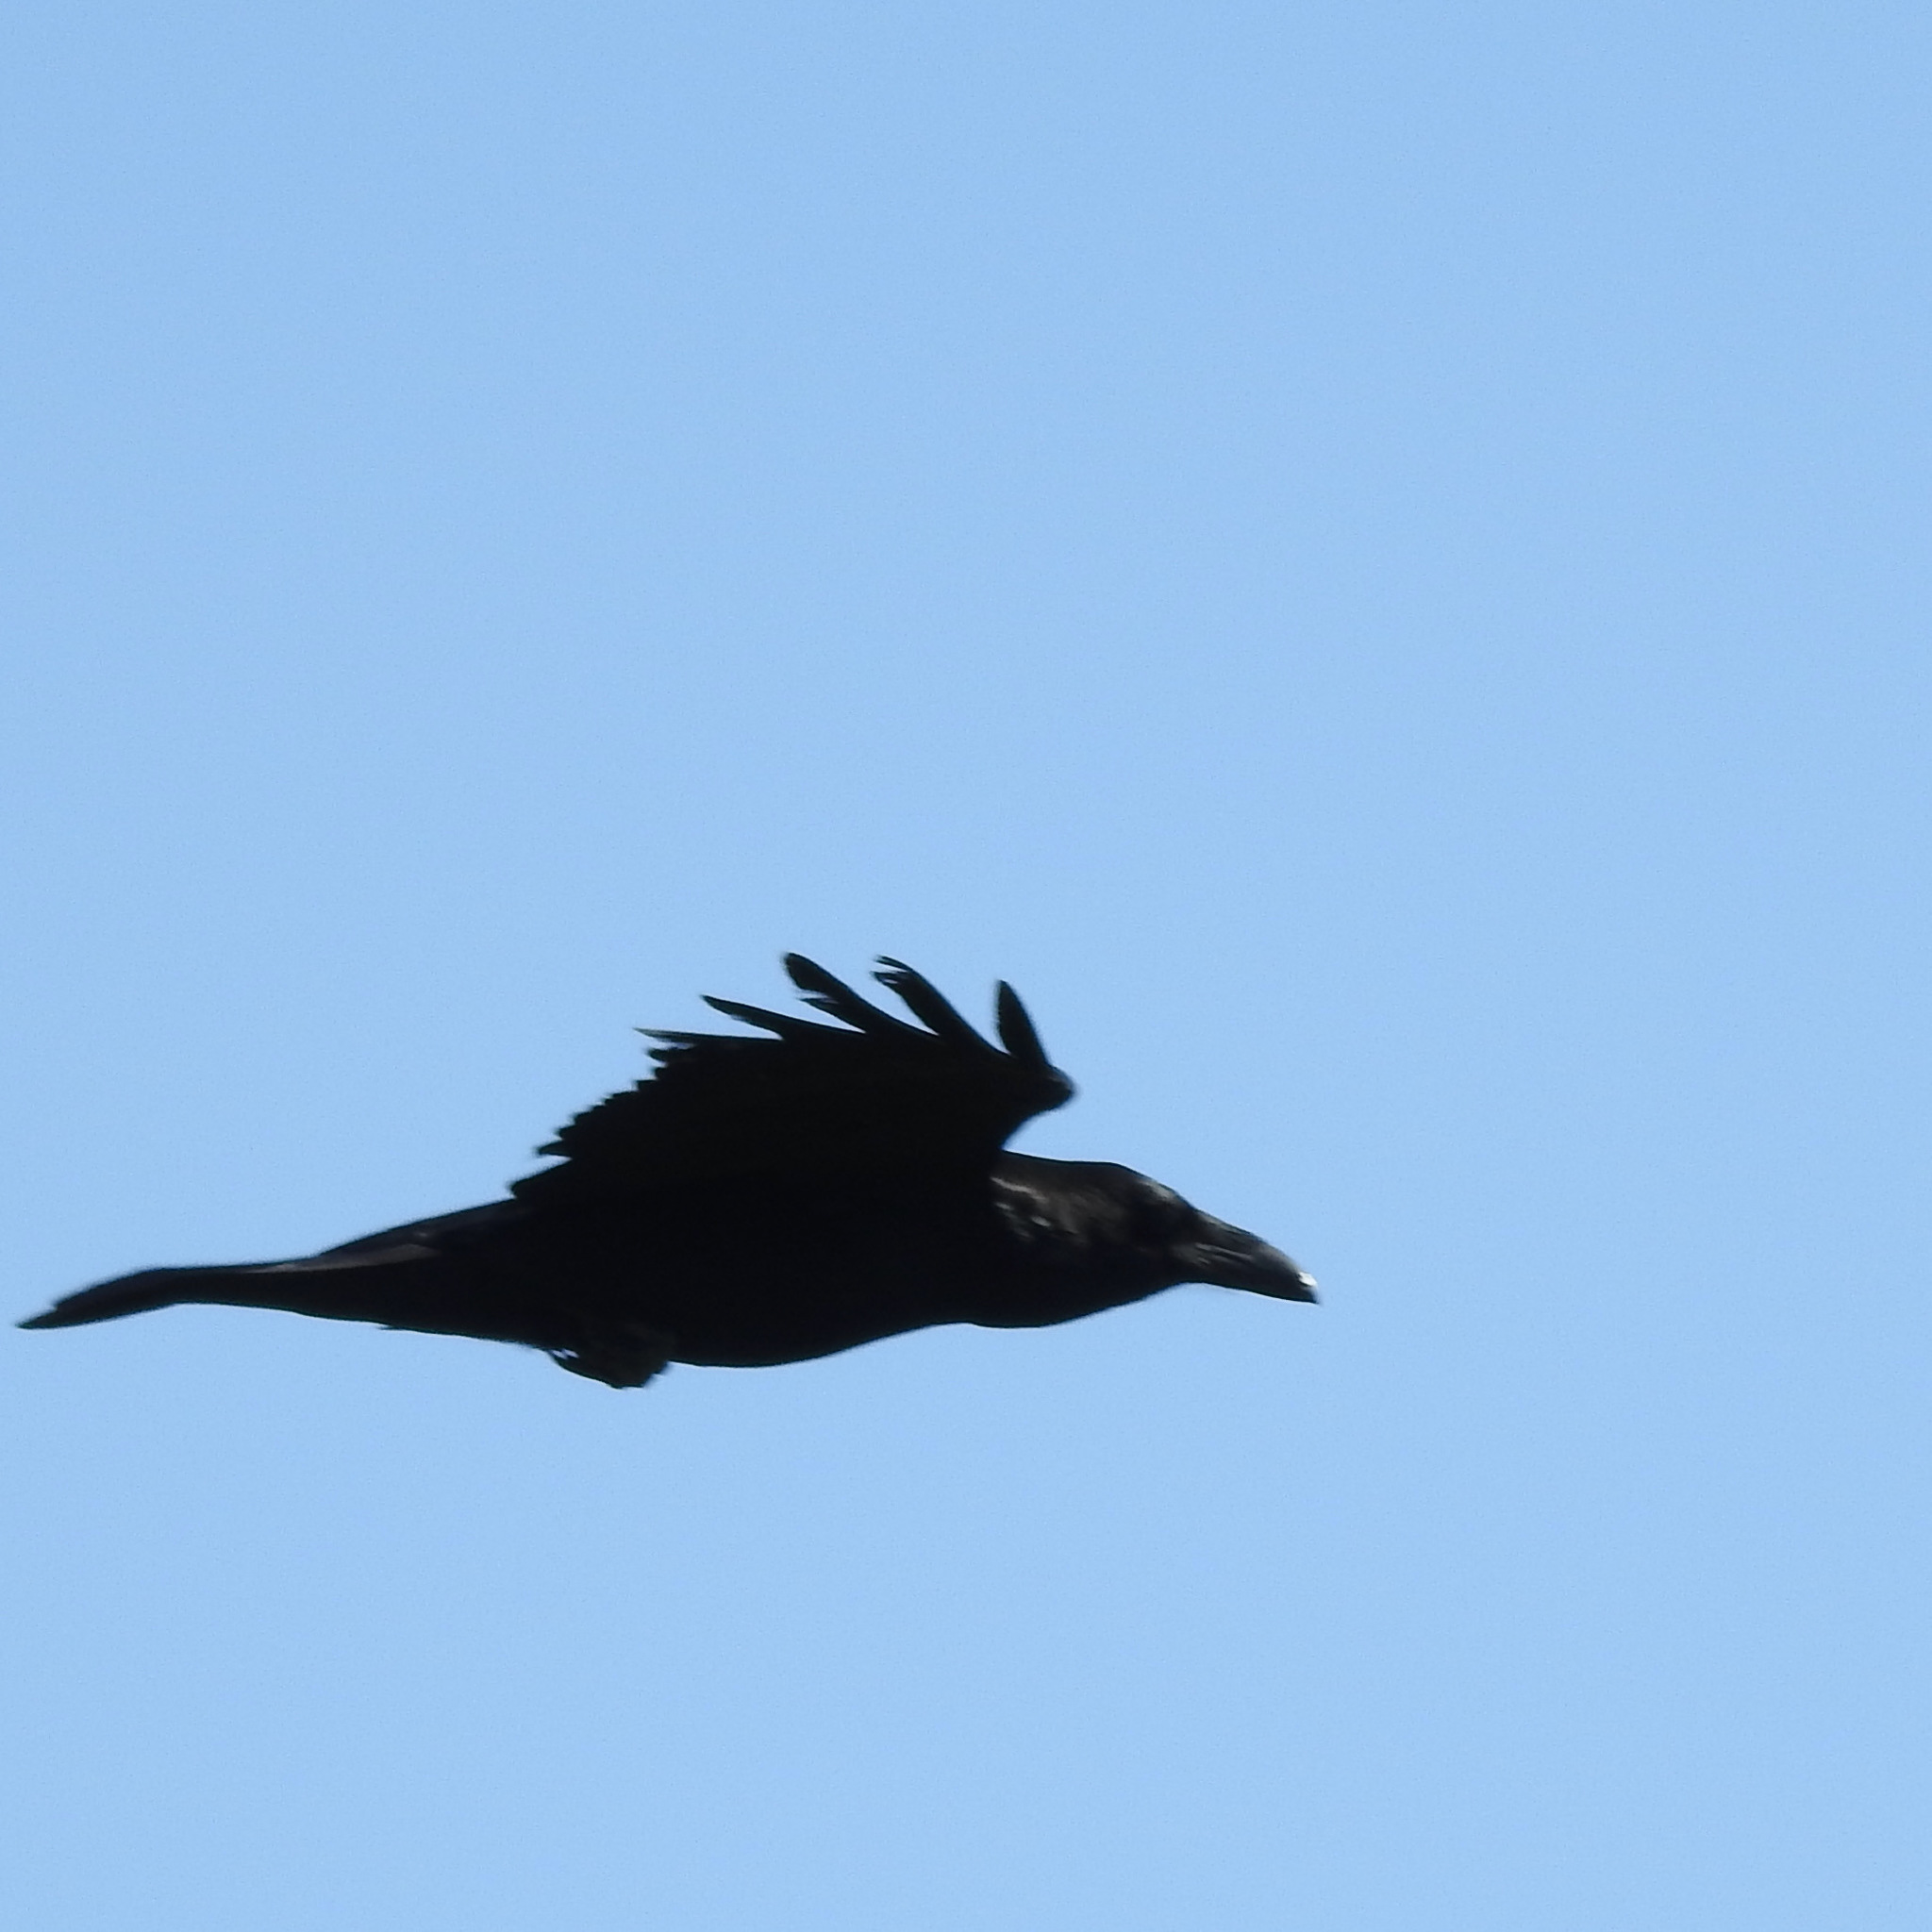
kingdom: Animalia
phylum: Chordata
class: Aves
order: Passeriformes
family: Corvidae
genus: Corvus
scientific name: Corvus corax
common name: Common raven
